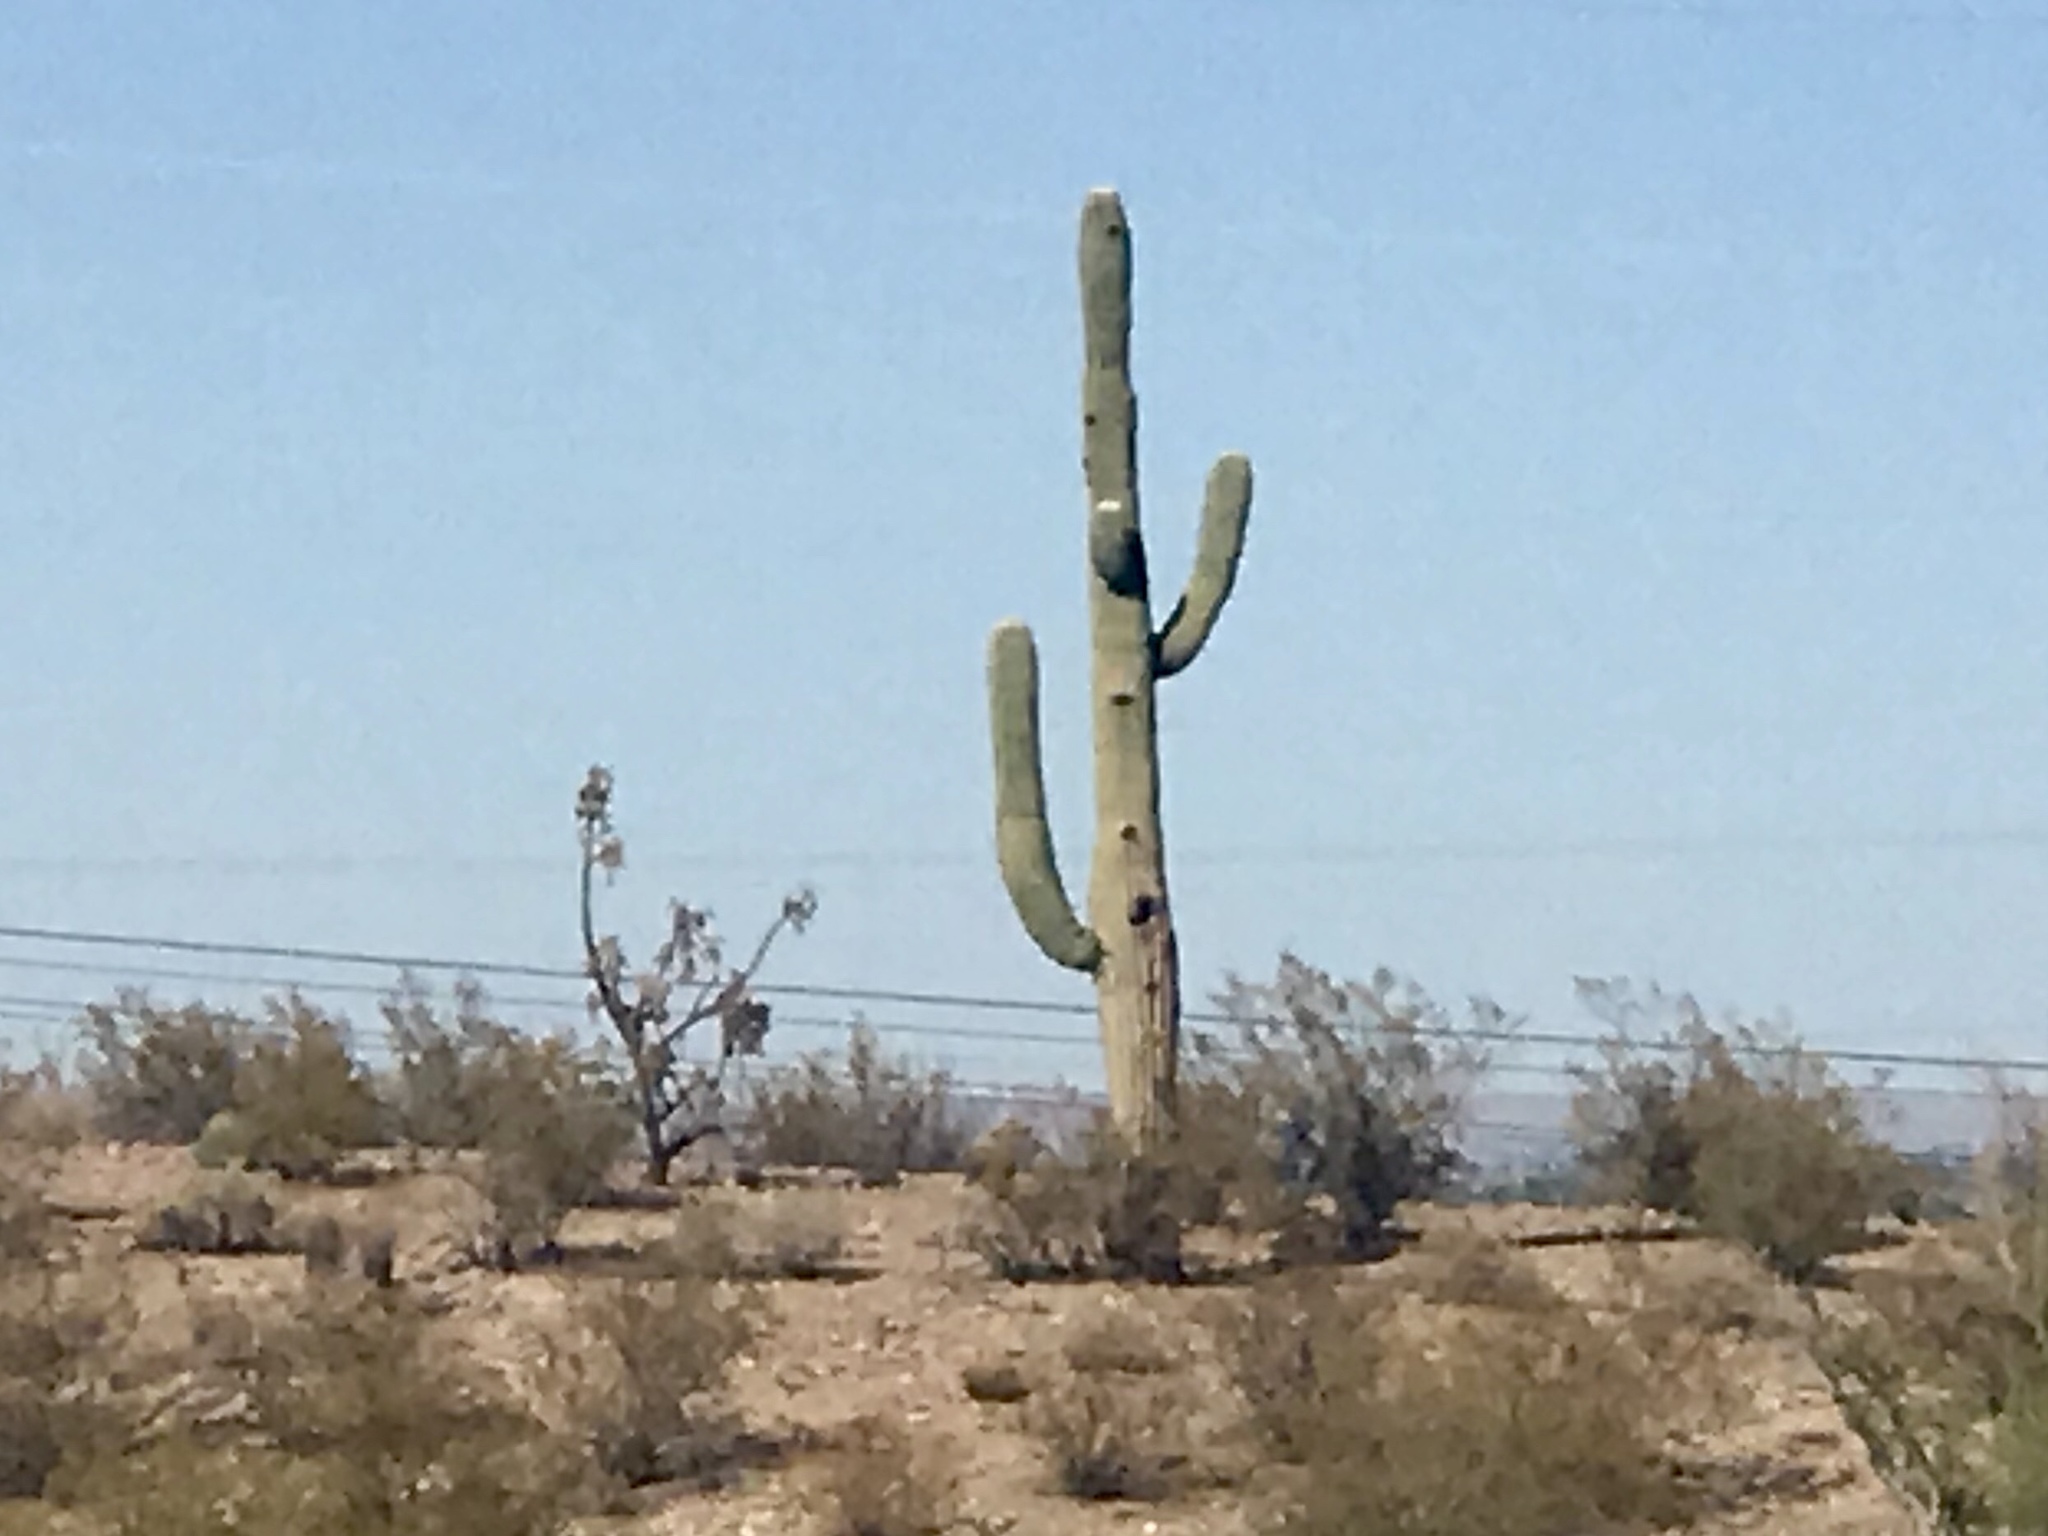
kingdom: Plantae
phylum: Tracheophyta
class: Magnoliopsida
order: Caryophyllales
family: Cactaceae
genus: Carnegiea
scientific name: Carnegiea gigantea
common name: Saguaro
